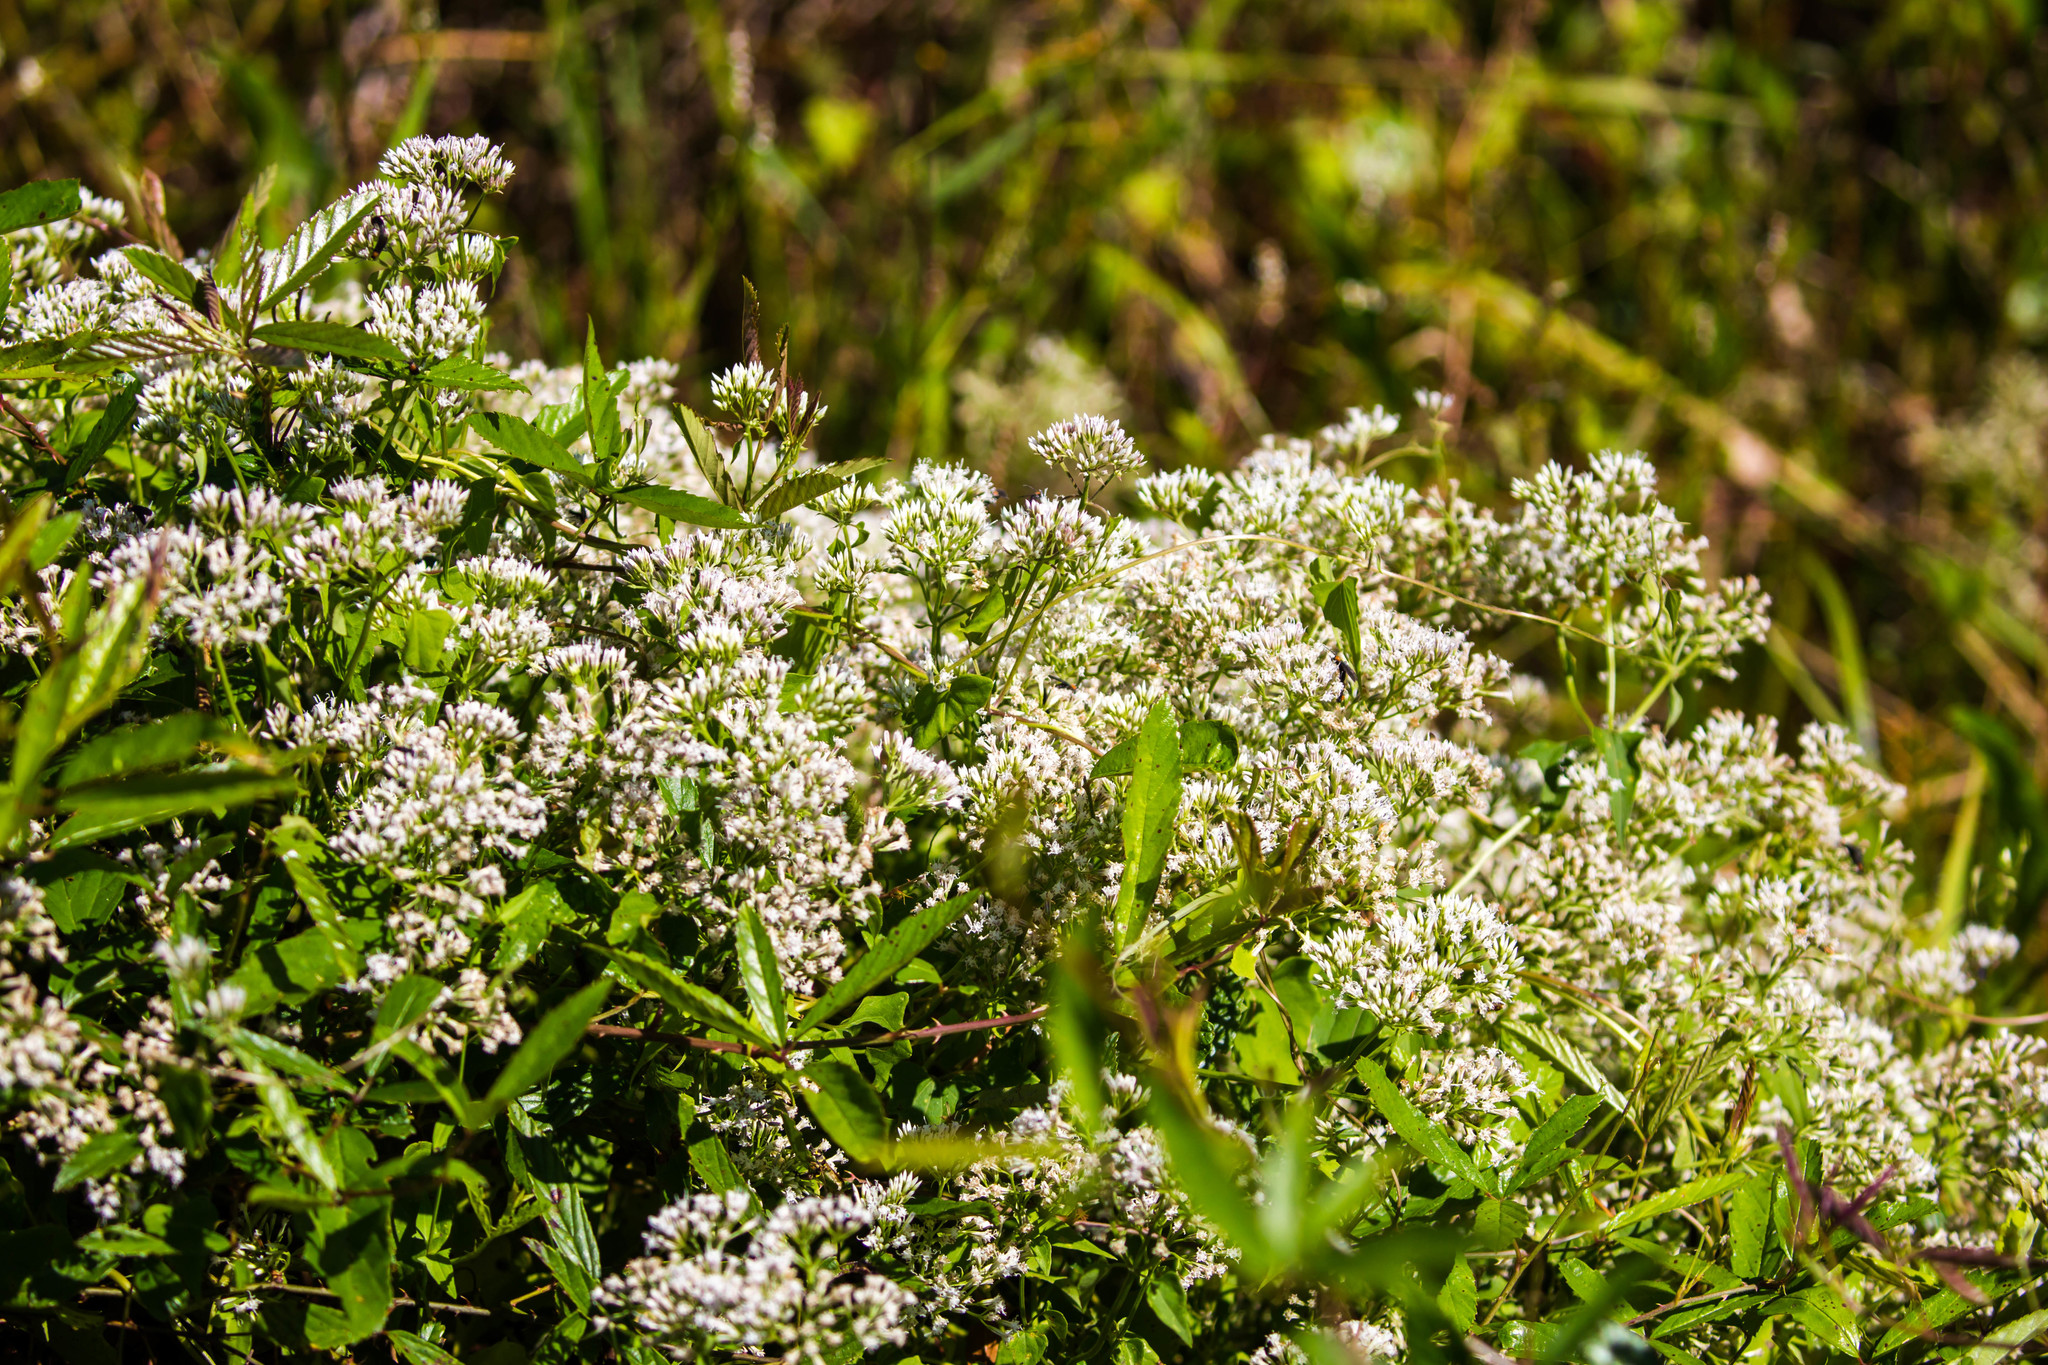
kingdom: Plantae
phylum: Tracheophyta
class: Magnoliopsida
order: Asterales
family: Asteraceae
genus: Mikania
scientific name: Mikania scandens
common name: Climbing hempvine
